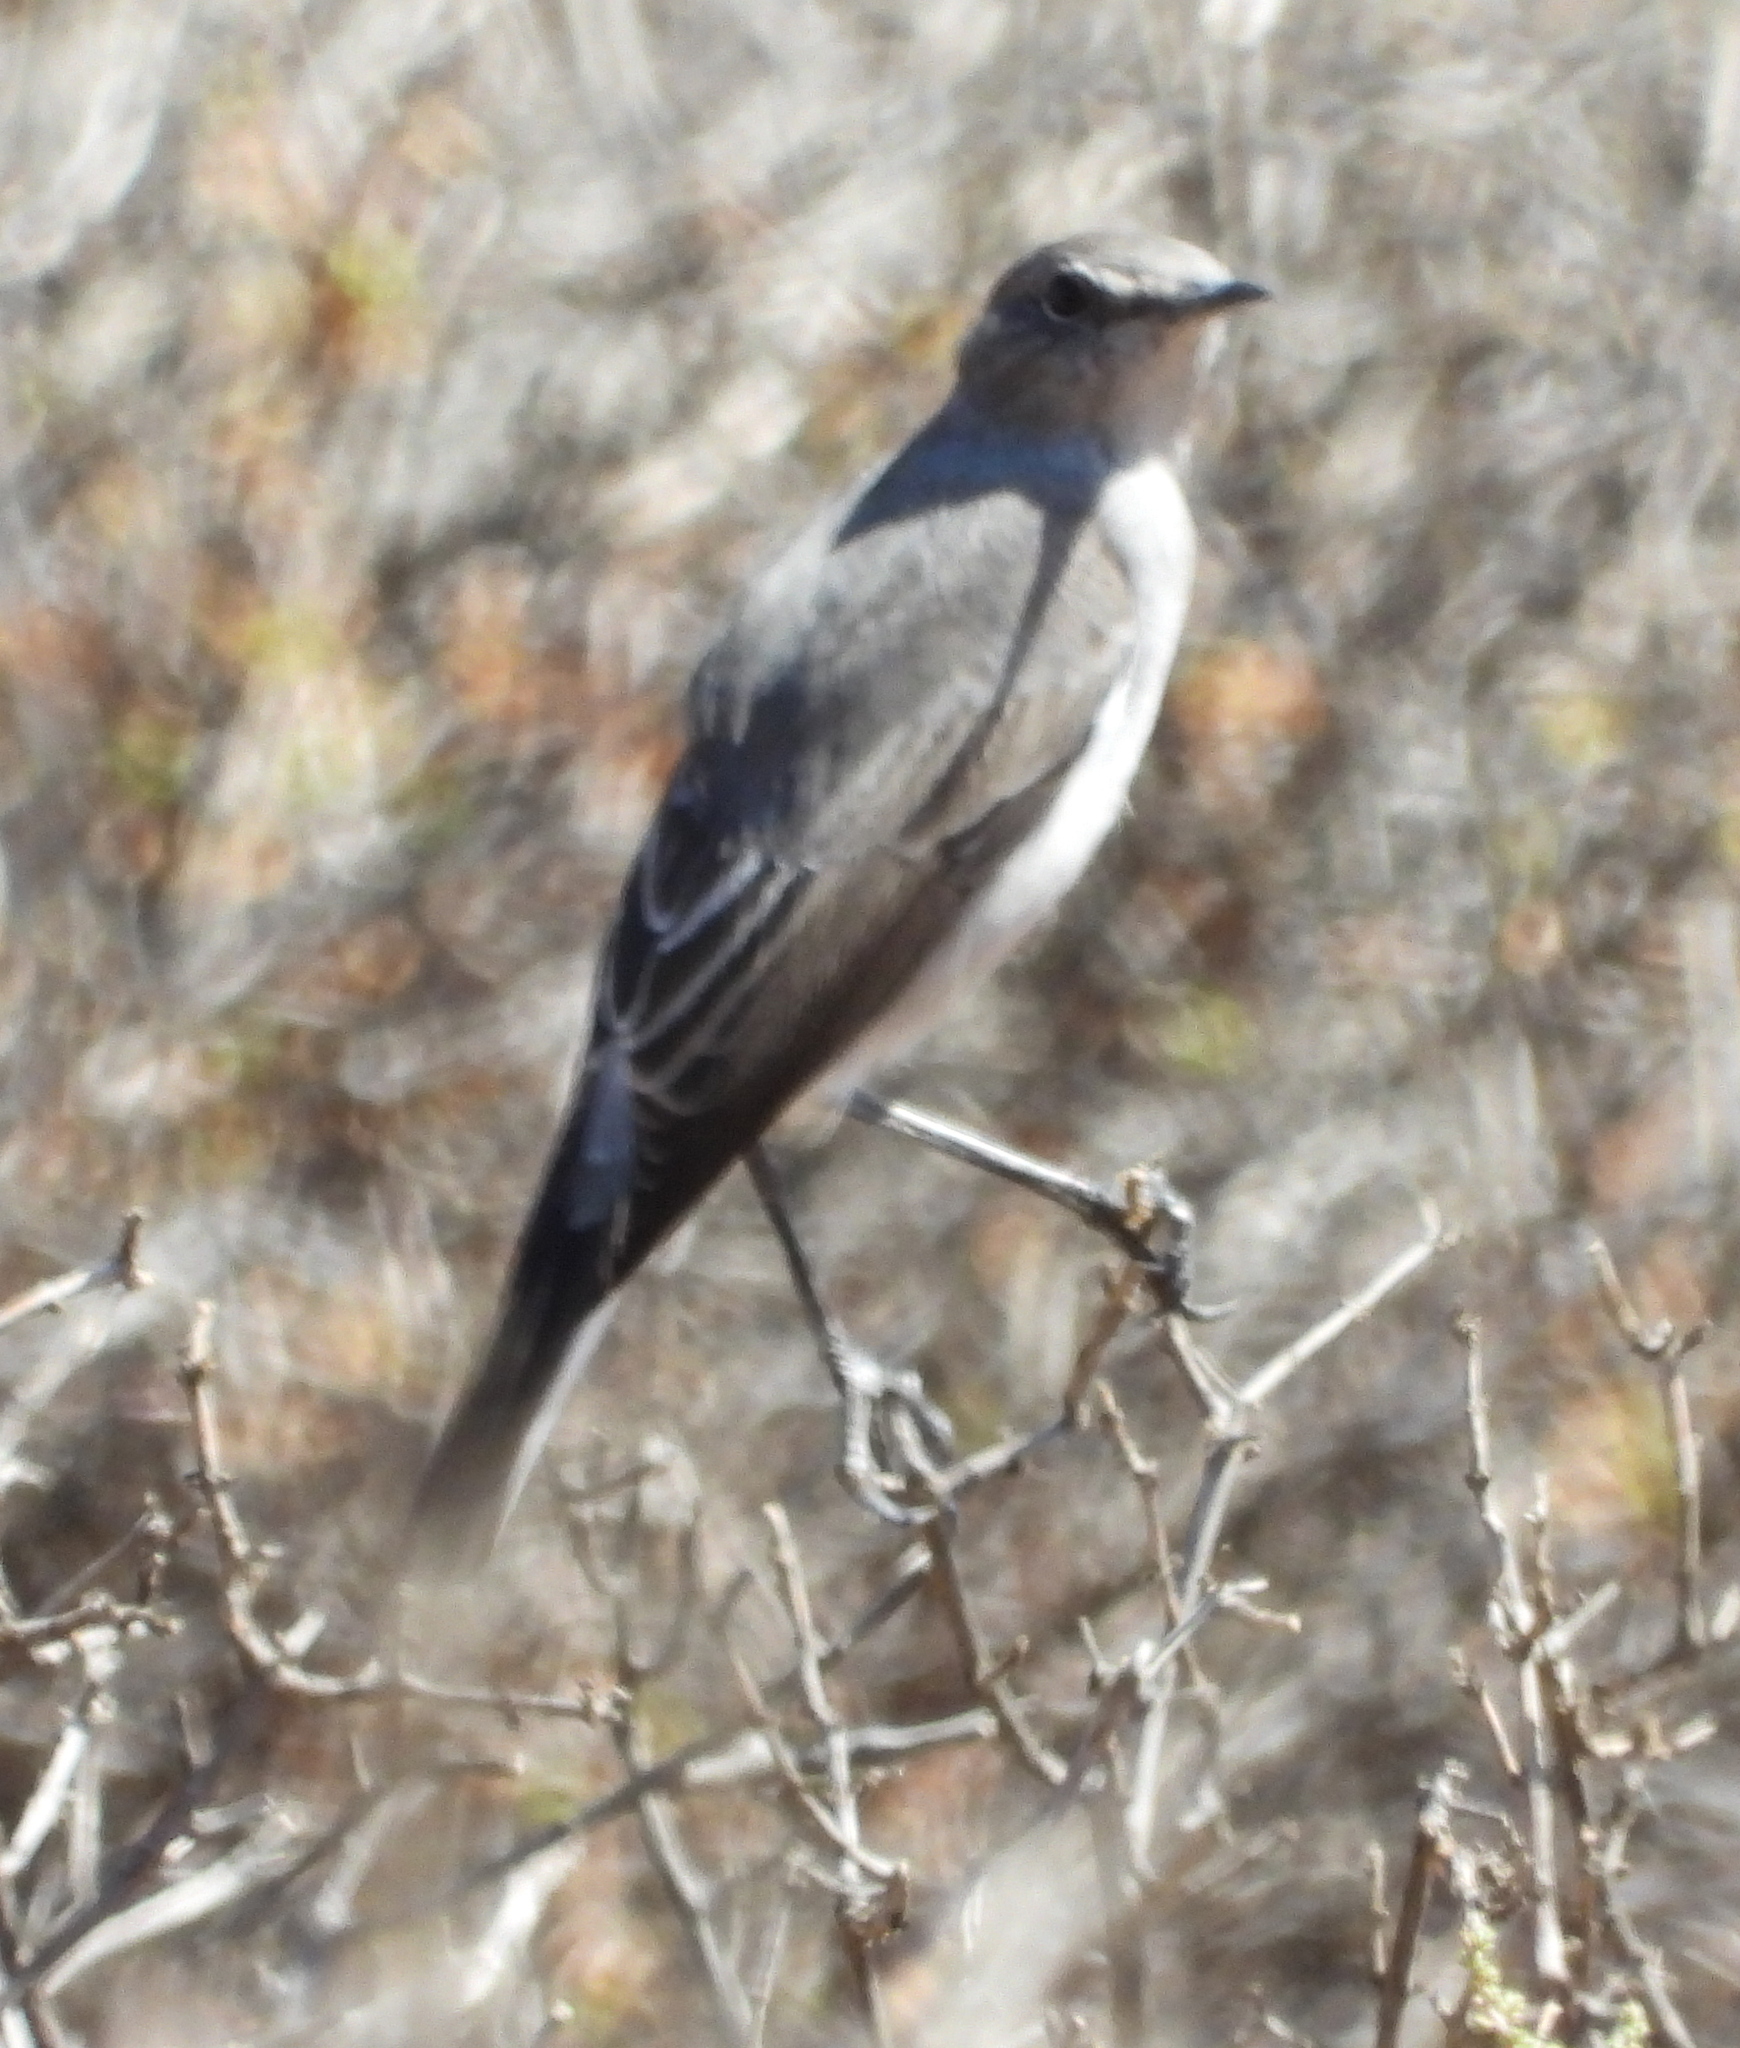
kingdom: Animalia
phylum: Chordata
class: Aves
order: Passeriformes
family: Muscicapidae
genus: Emarginata
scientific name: Emarginata schlegelii
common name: Karoo chat
